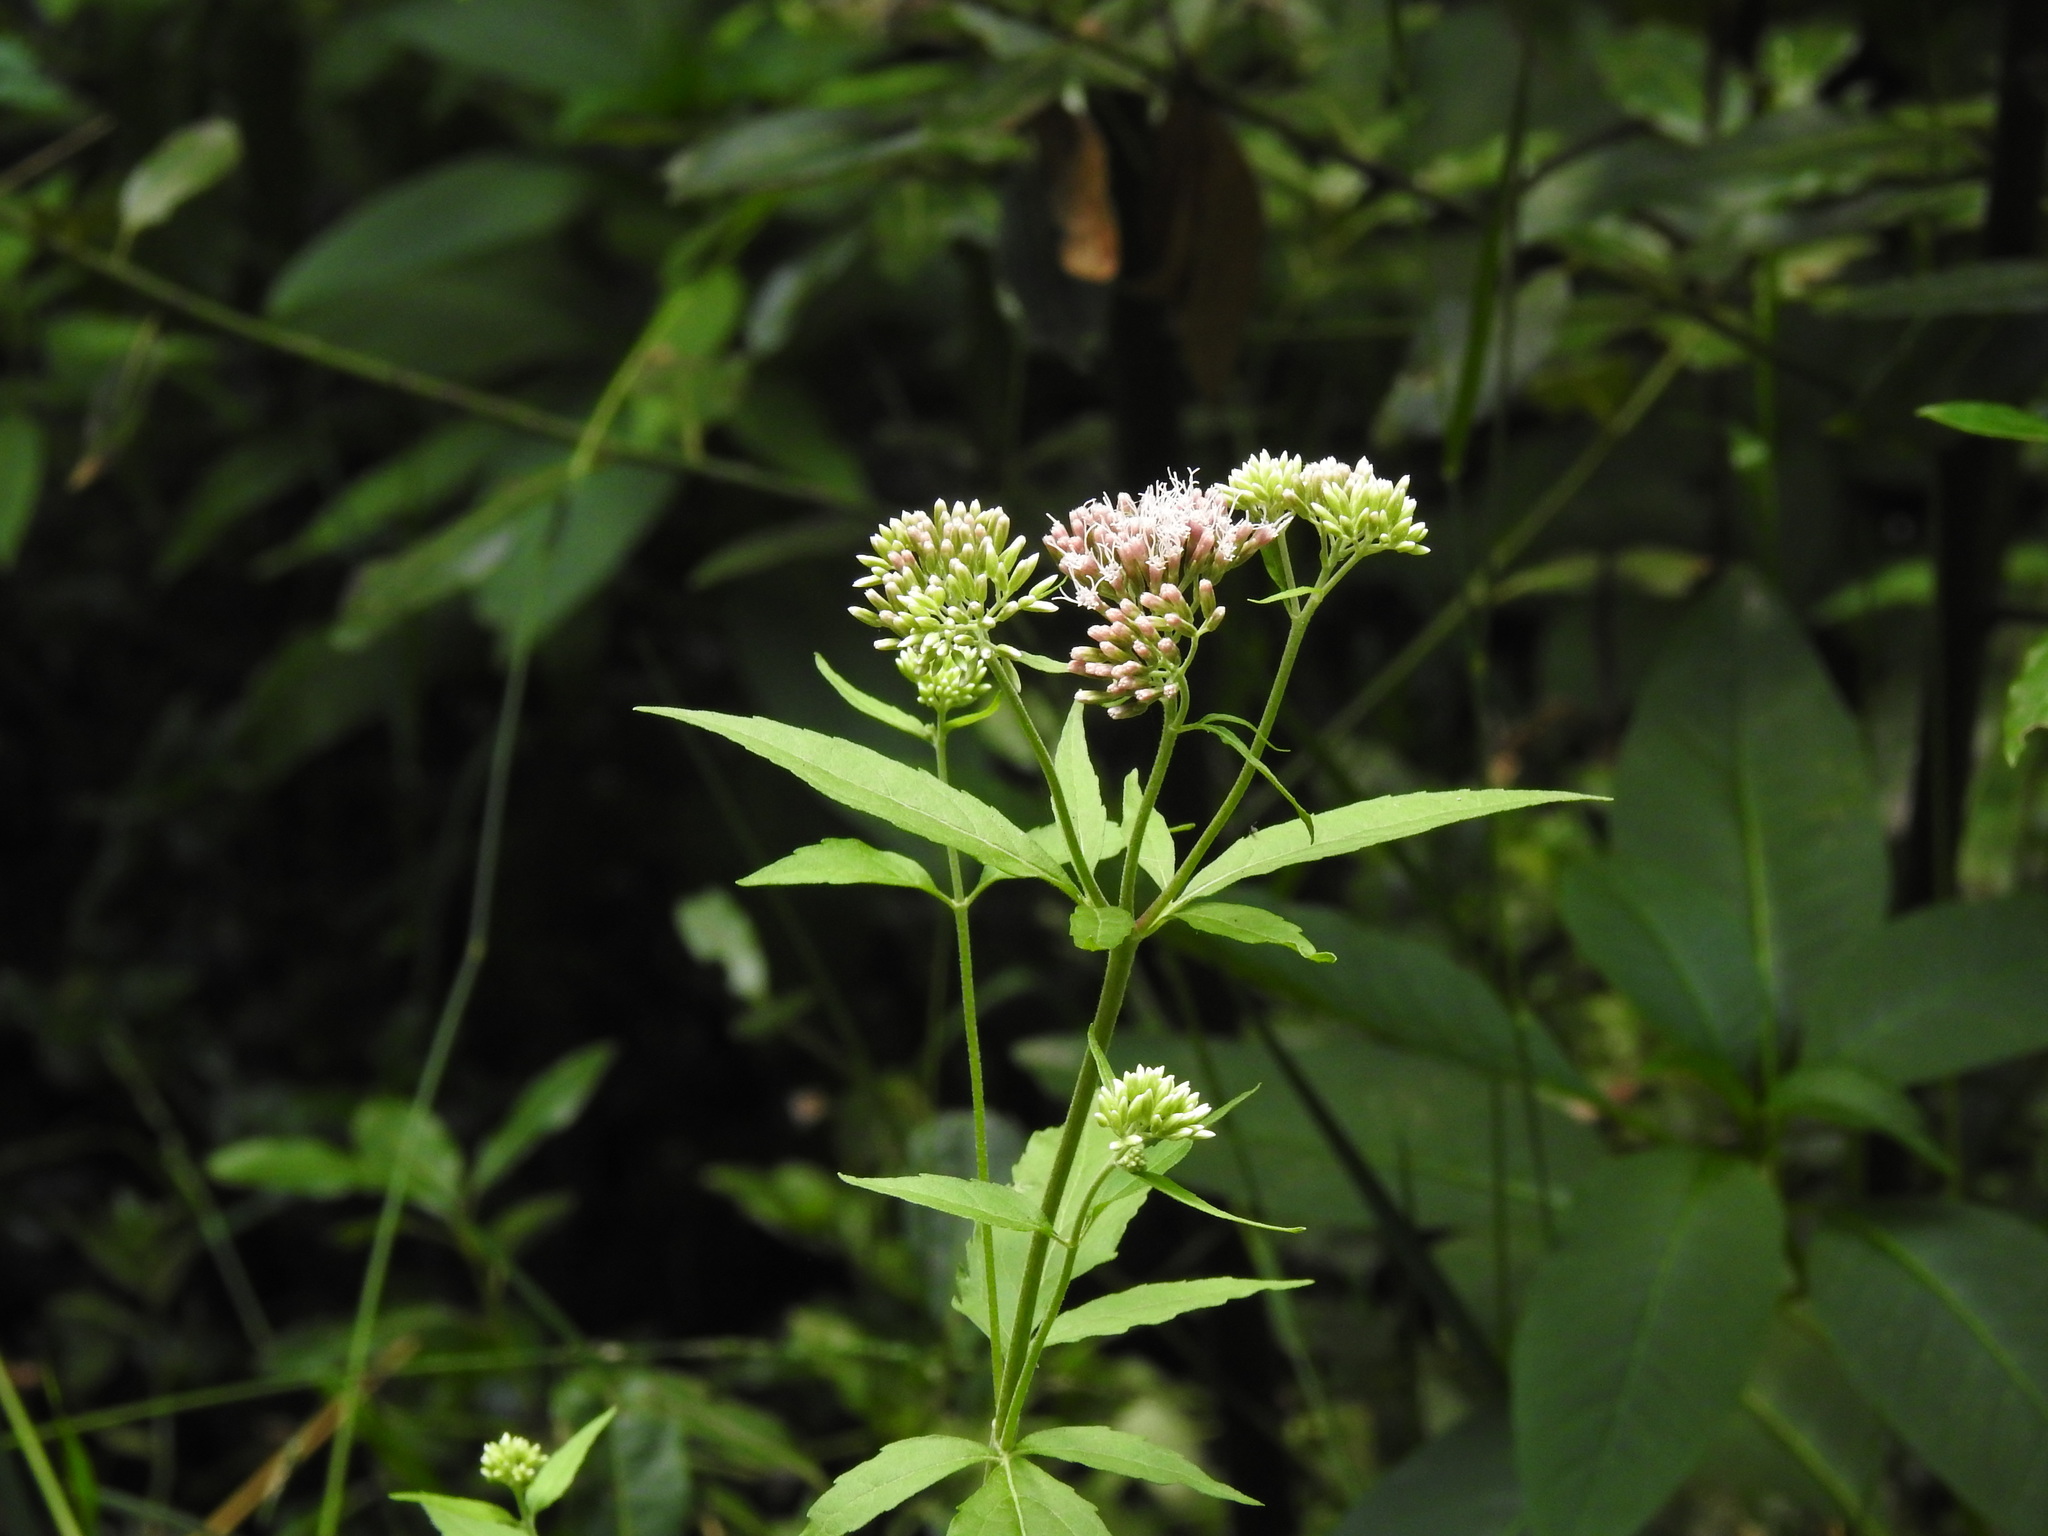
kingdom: Plantae
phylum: Tracheophyta
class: Magnoliopsida
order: Asterales
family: Asteraceae
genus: Eupatorium
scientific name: Eupatorium cannabinum
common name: Hemp-agrimony
